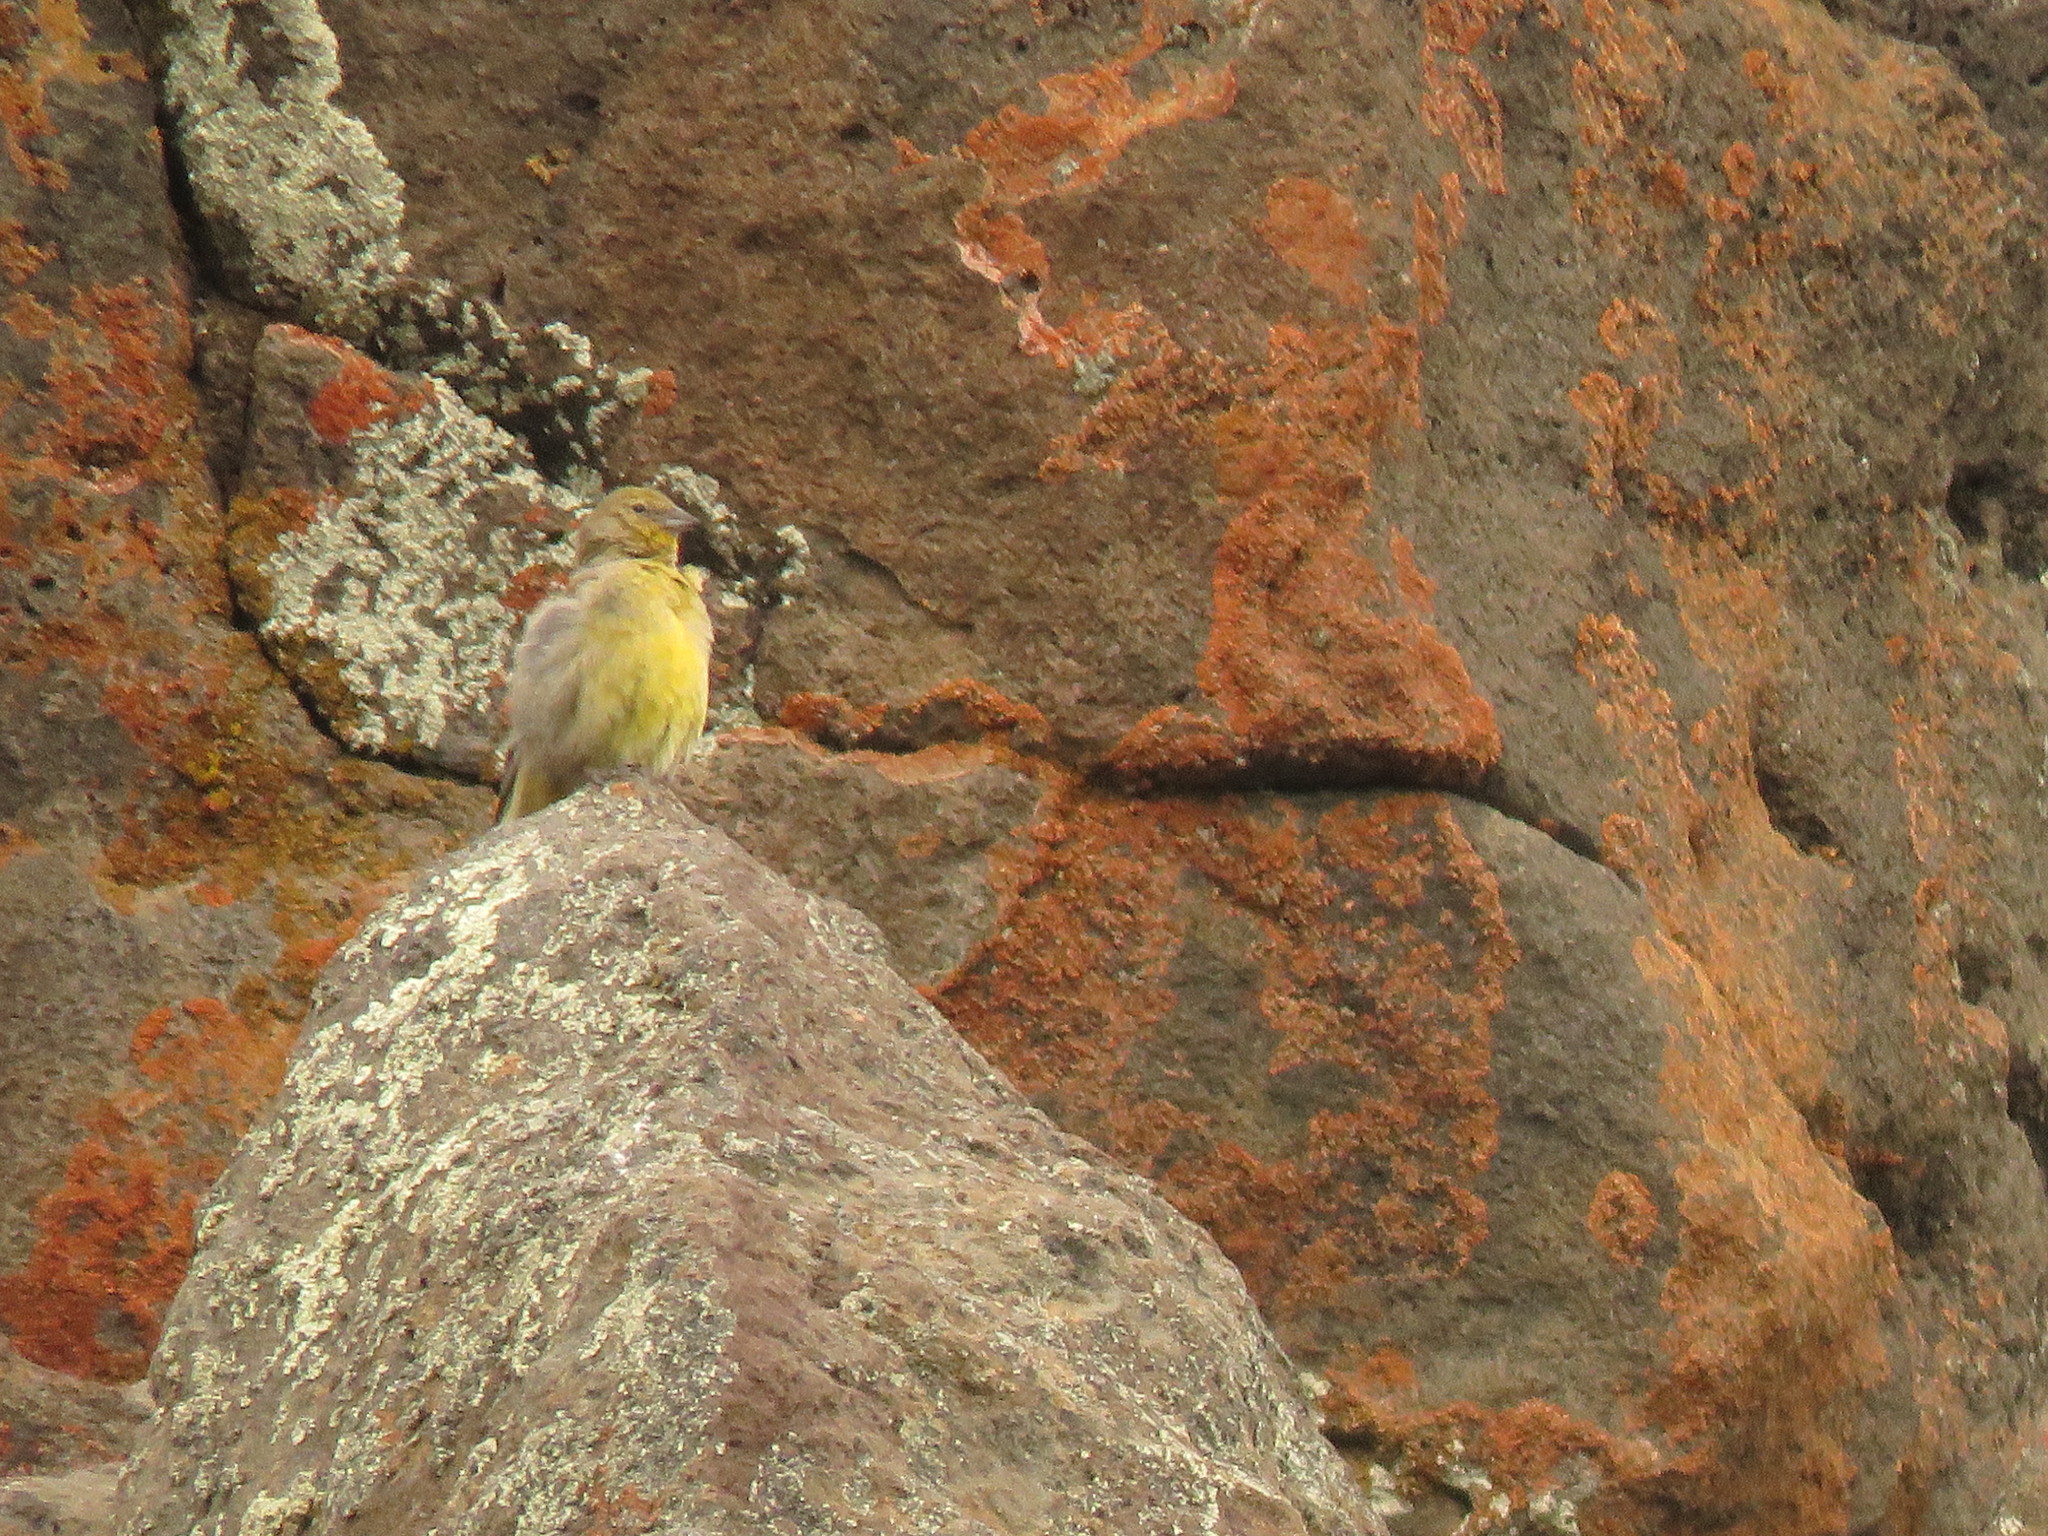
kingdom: Animalia
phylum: Chordata
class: Aves
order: Passeriformes
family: Thraupidae
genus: Sicalis
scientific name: Sicalis auriventris
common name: Greater yellow finch
